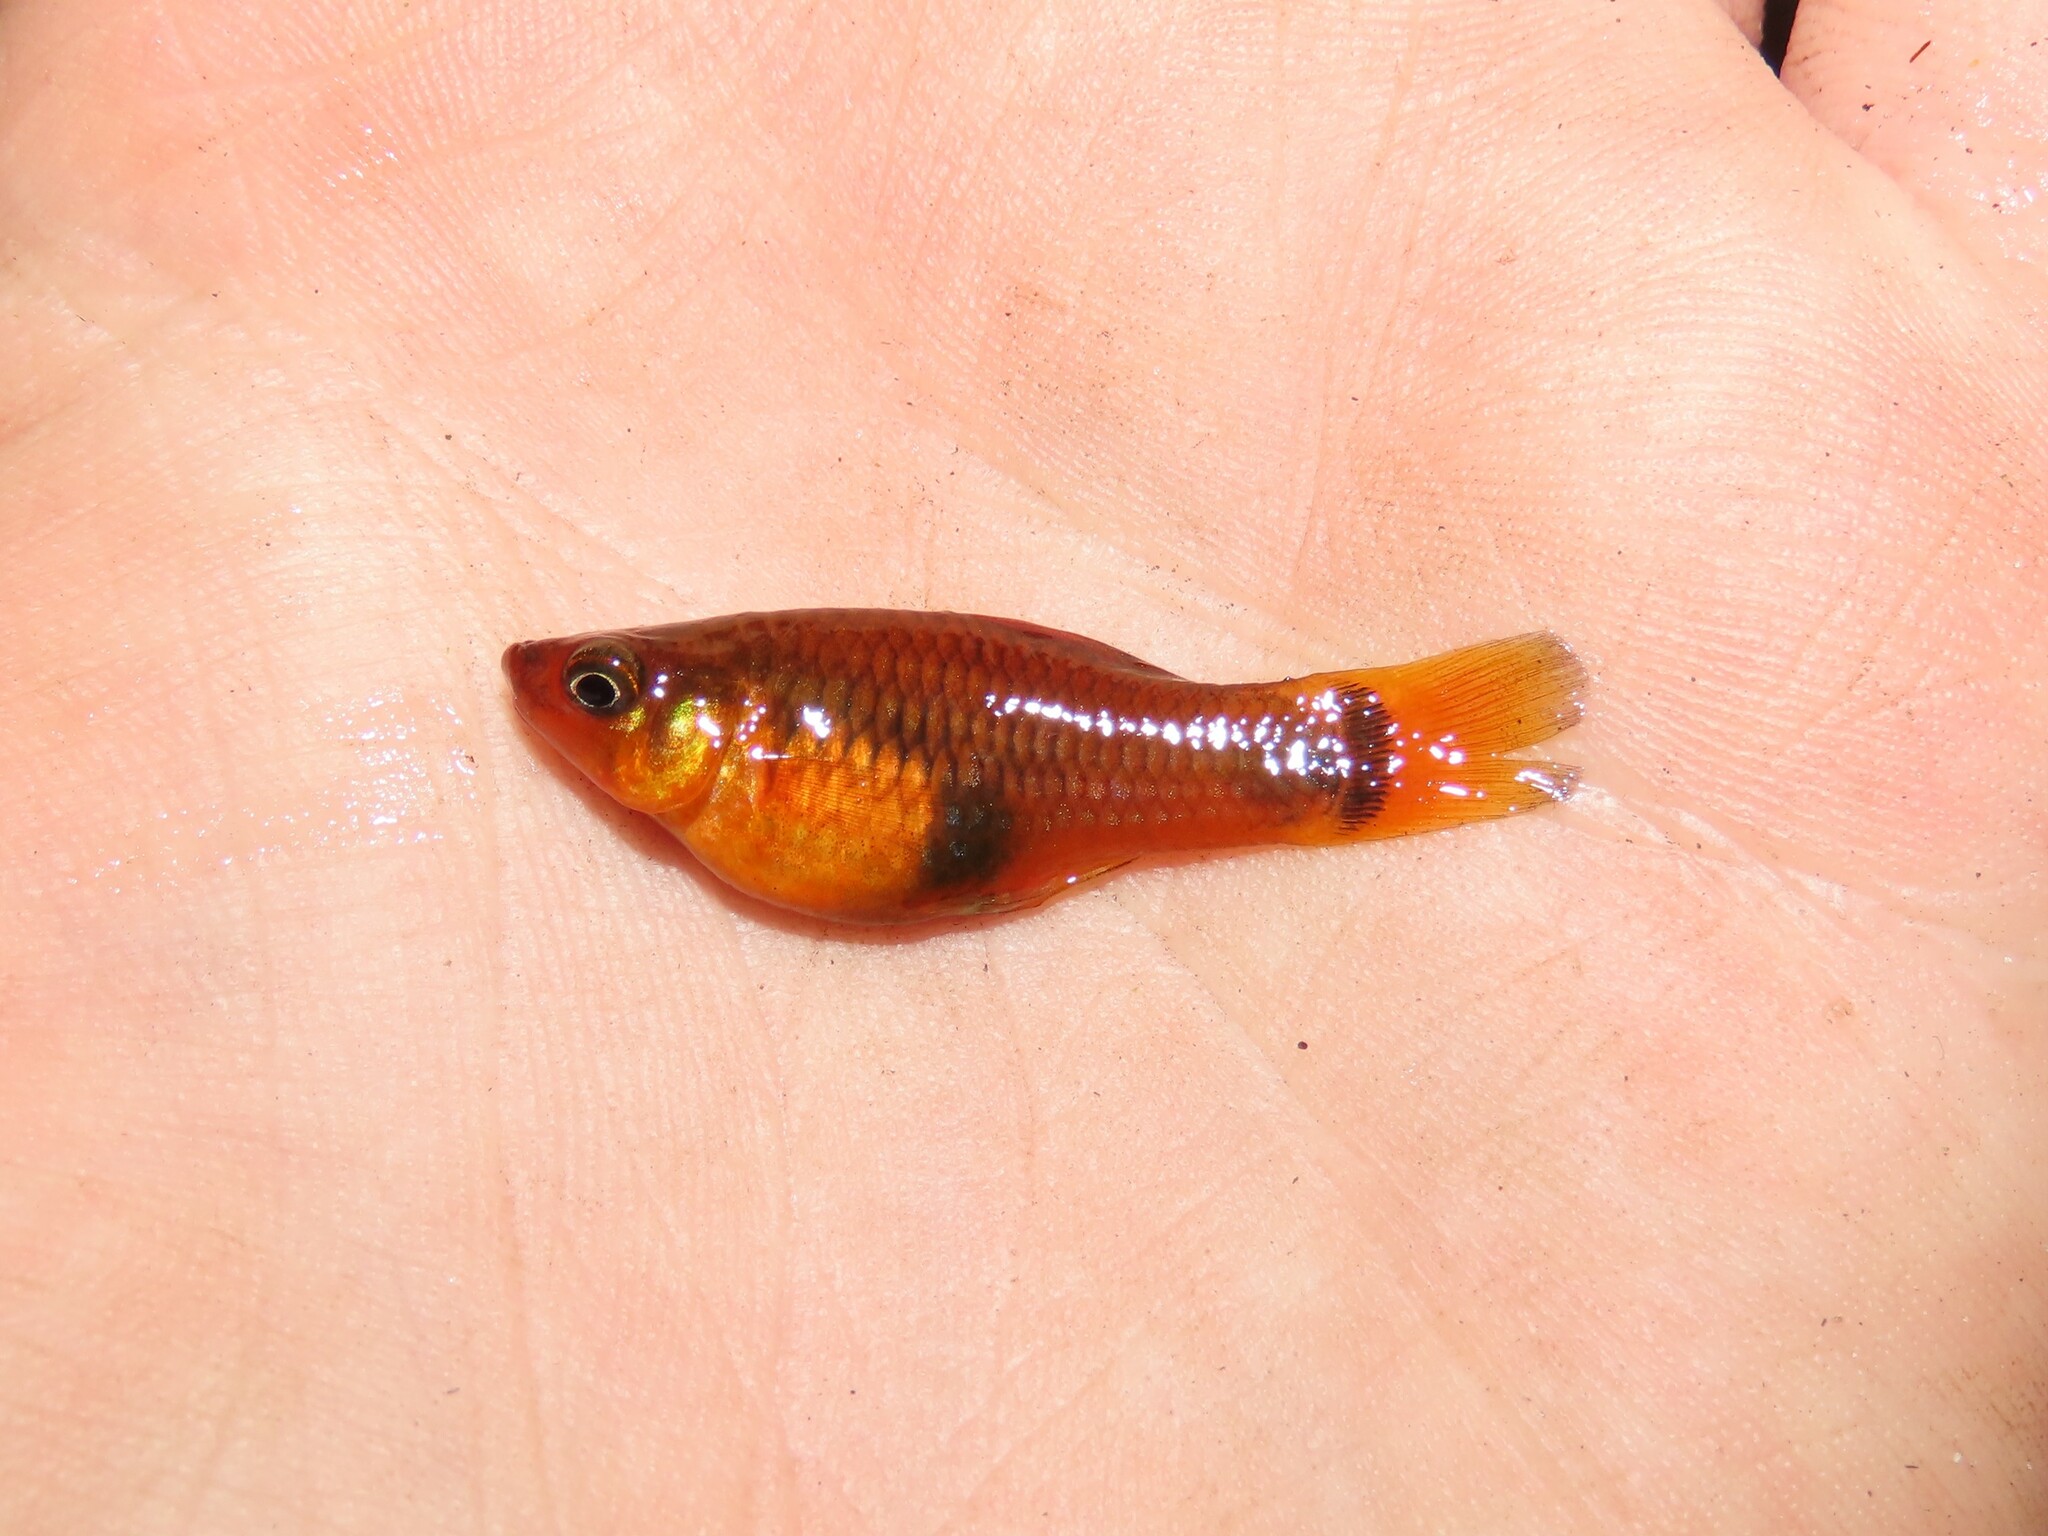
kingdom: Animalia
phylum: Chordata
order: Cyprinodontiformes
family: Poeciliidae
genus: Xiphophorus
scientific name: Xiphophorus variatus
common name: Variable platyfish
